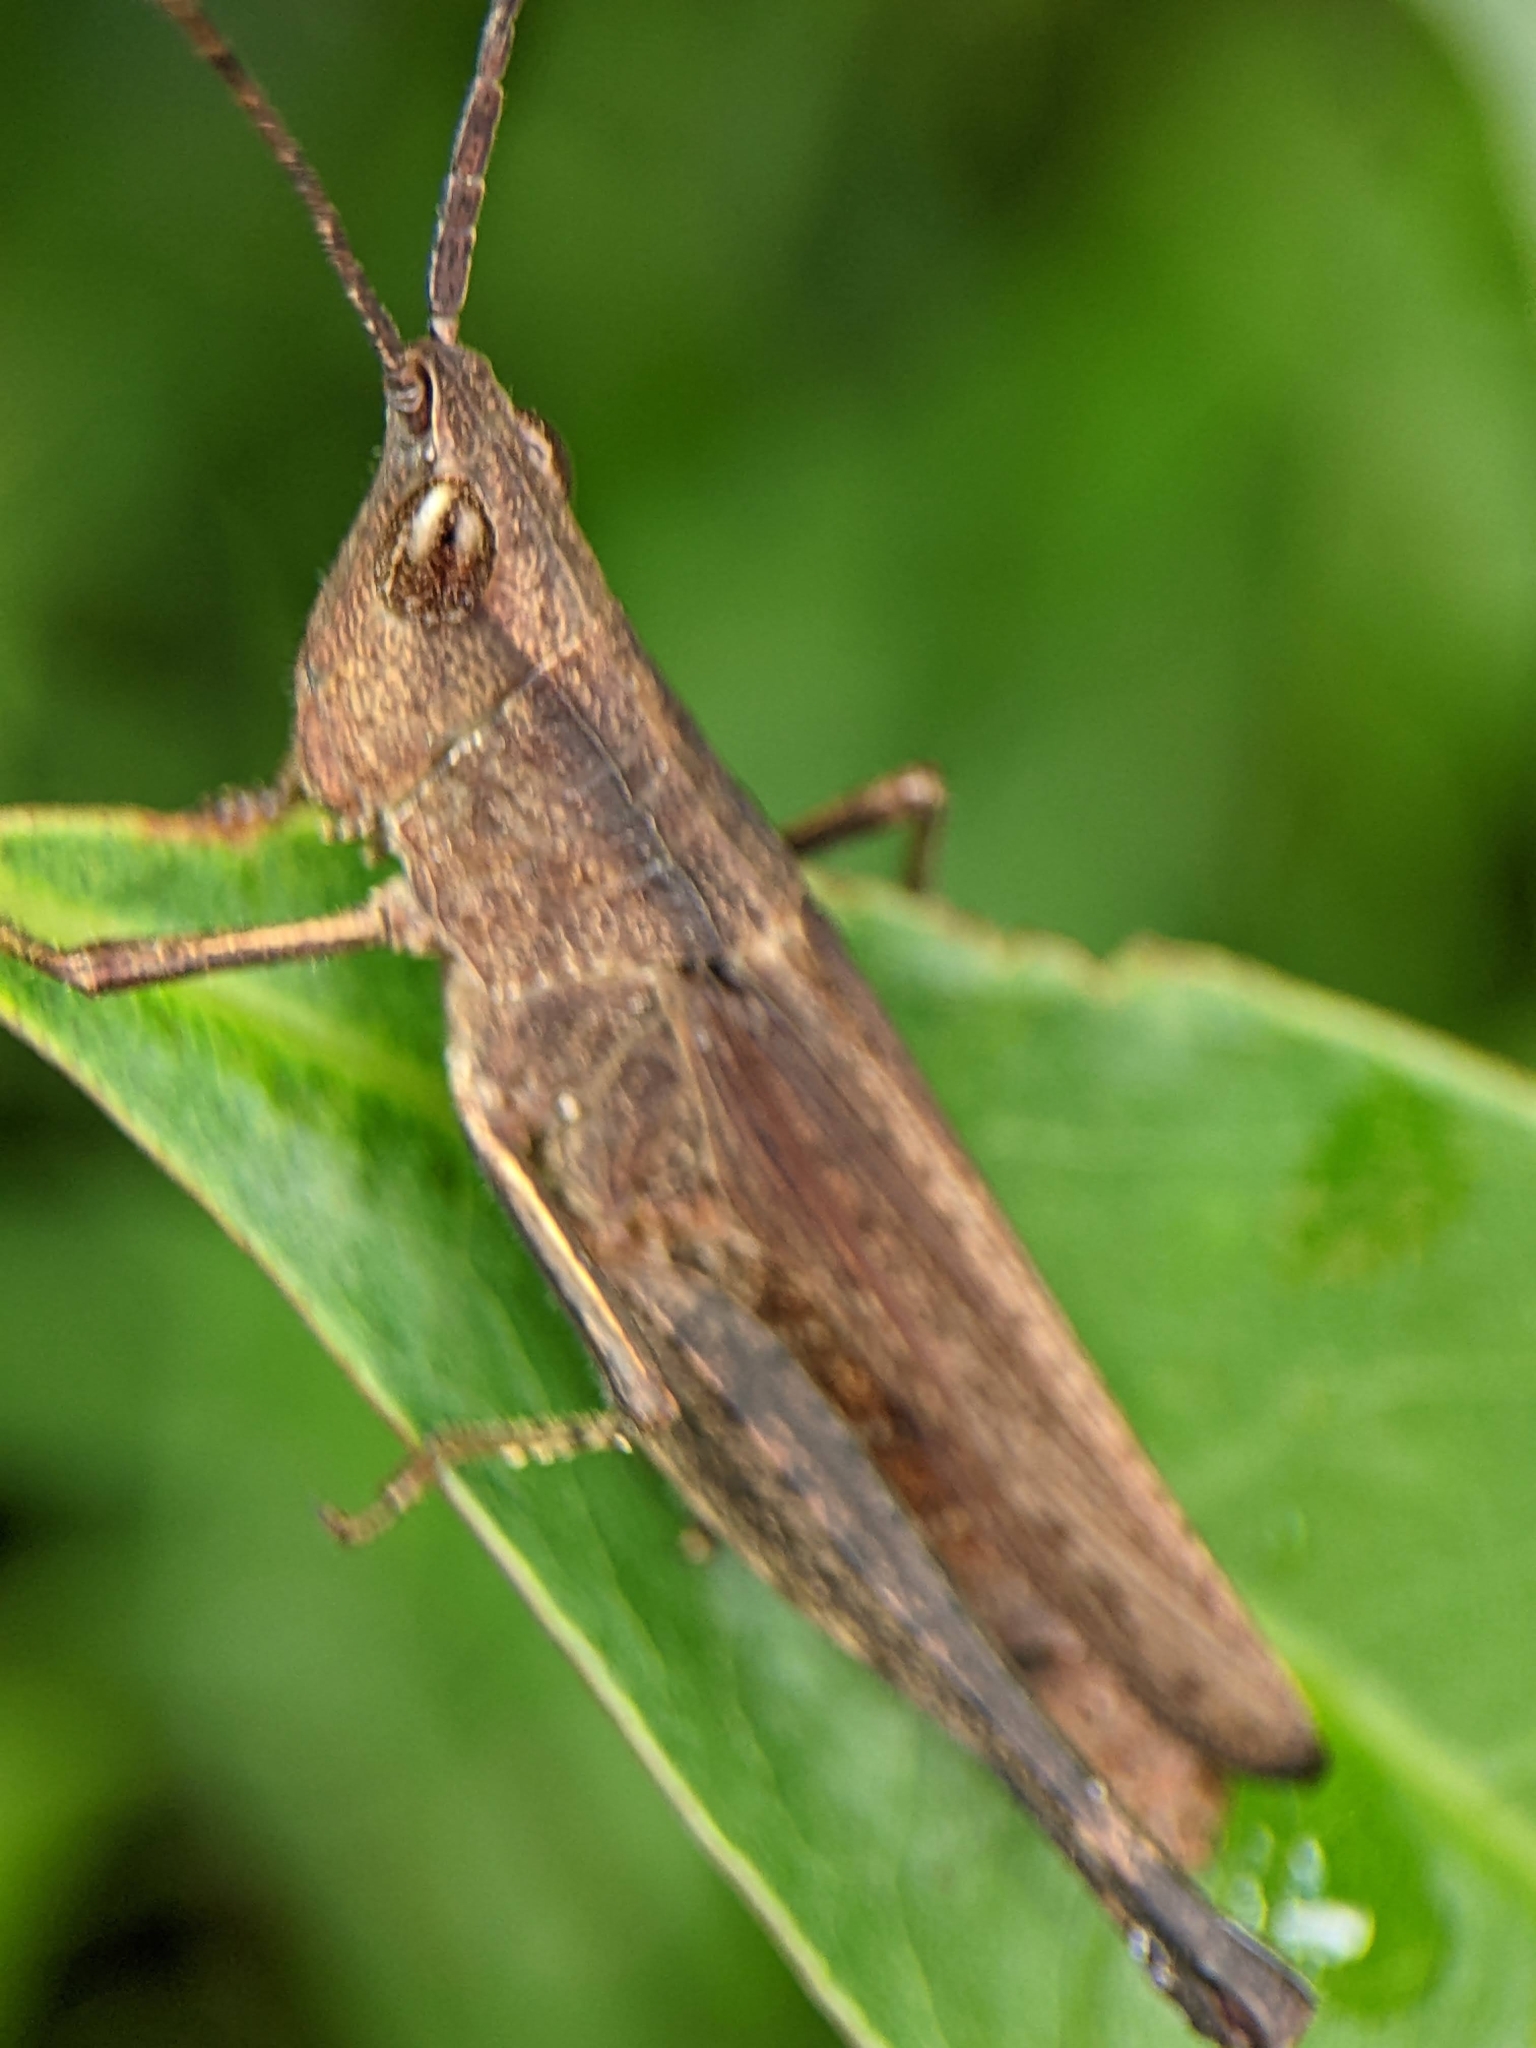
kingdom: Animalia
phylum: Arthropoda
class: Insecta
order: Orthoptera
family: Acrididae
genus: Phlaeoba
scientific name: Phlaeoba antennata
